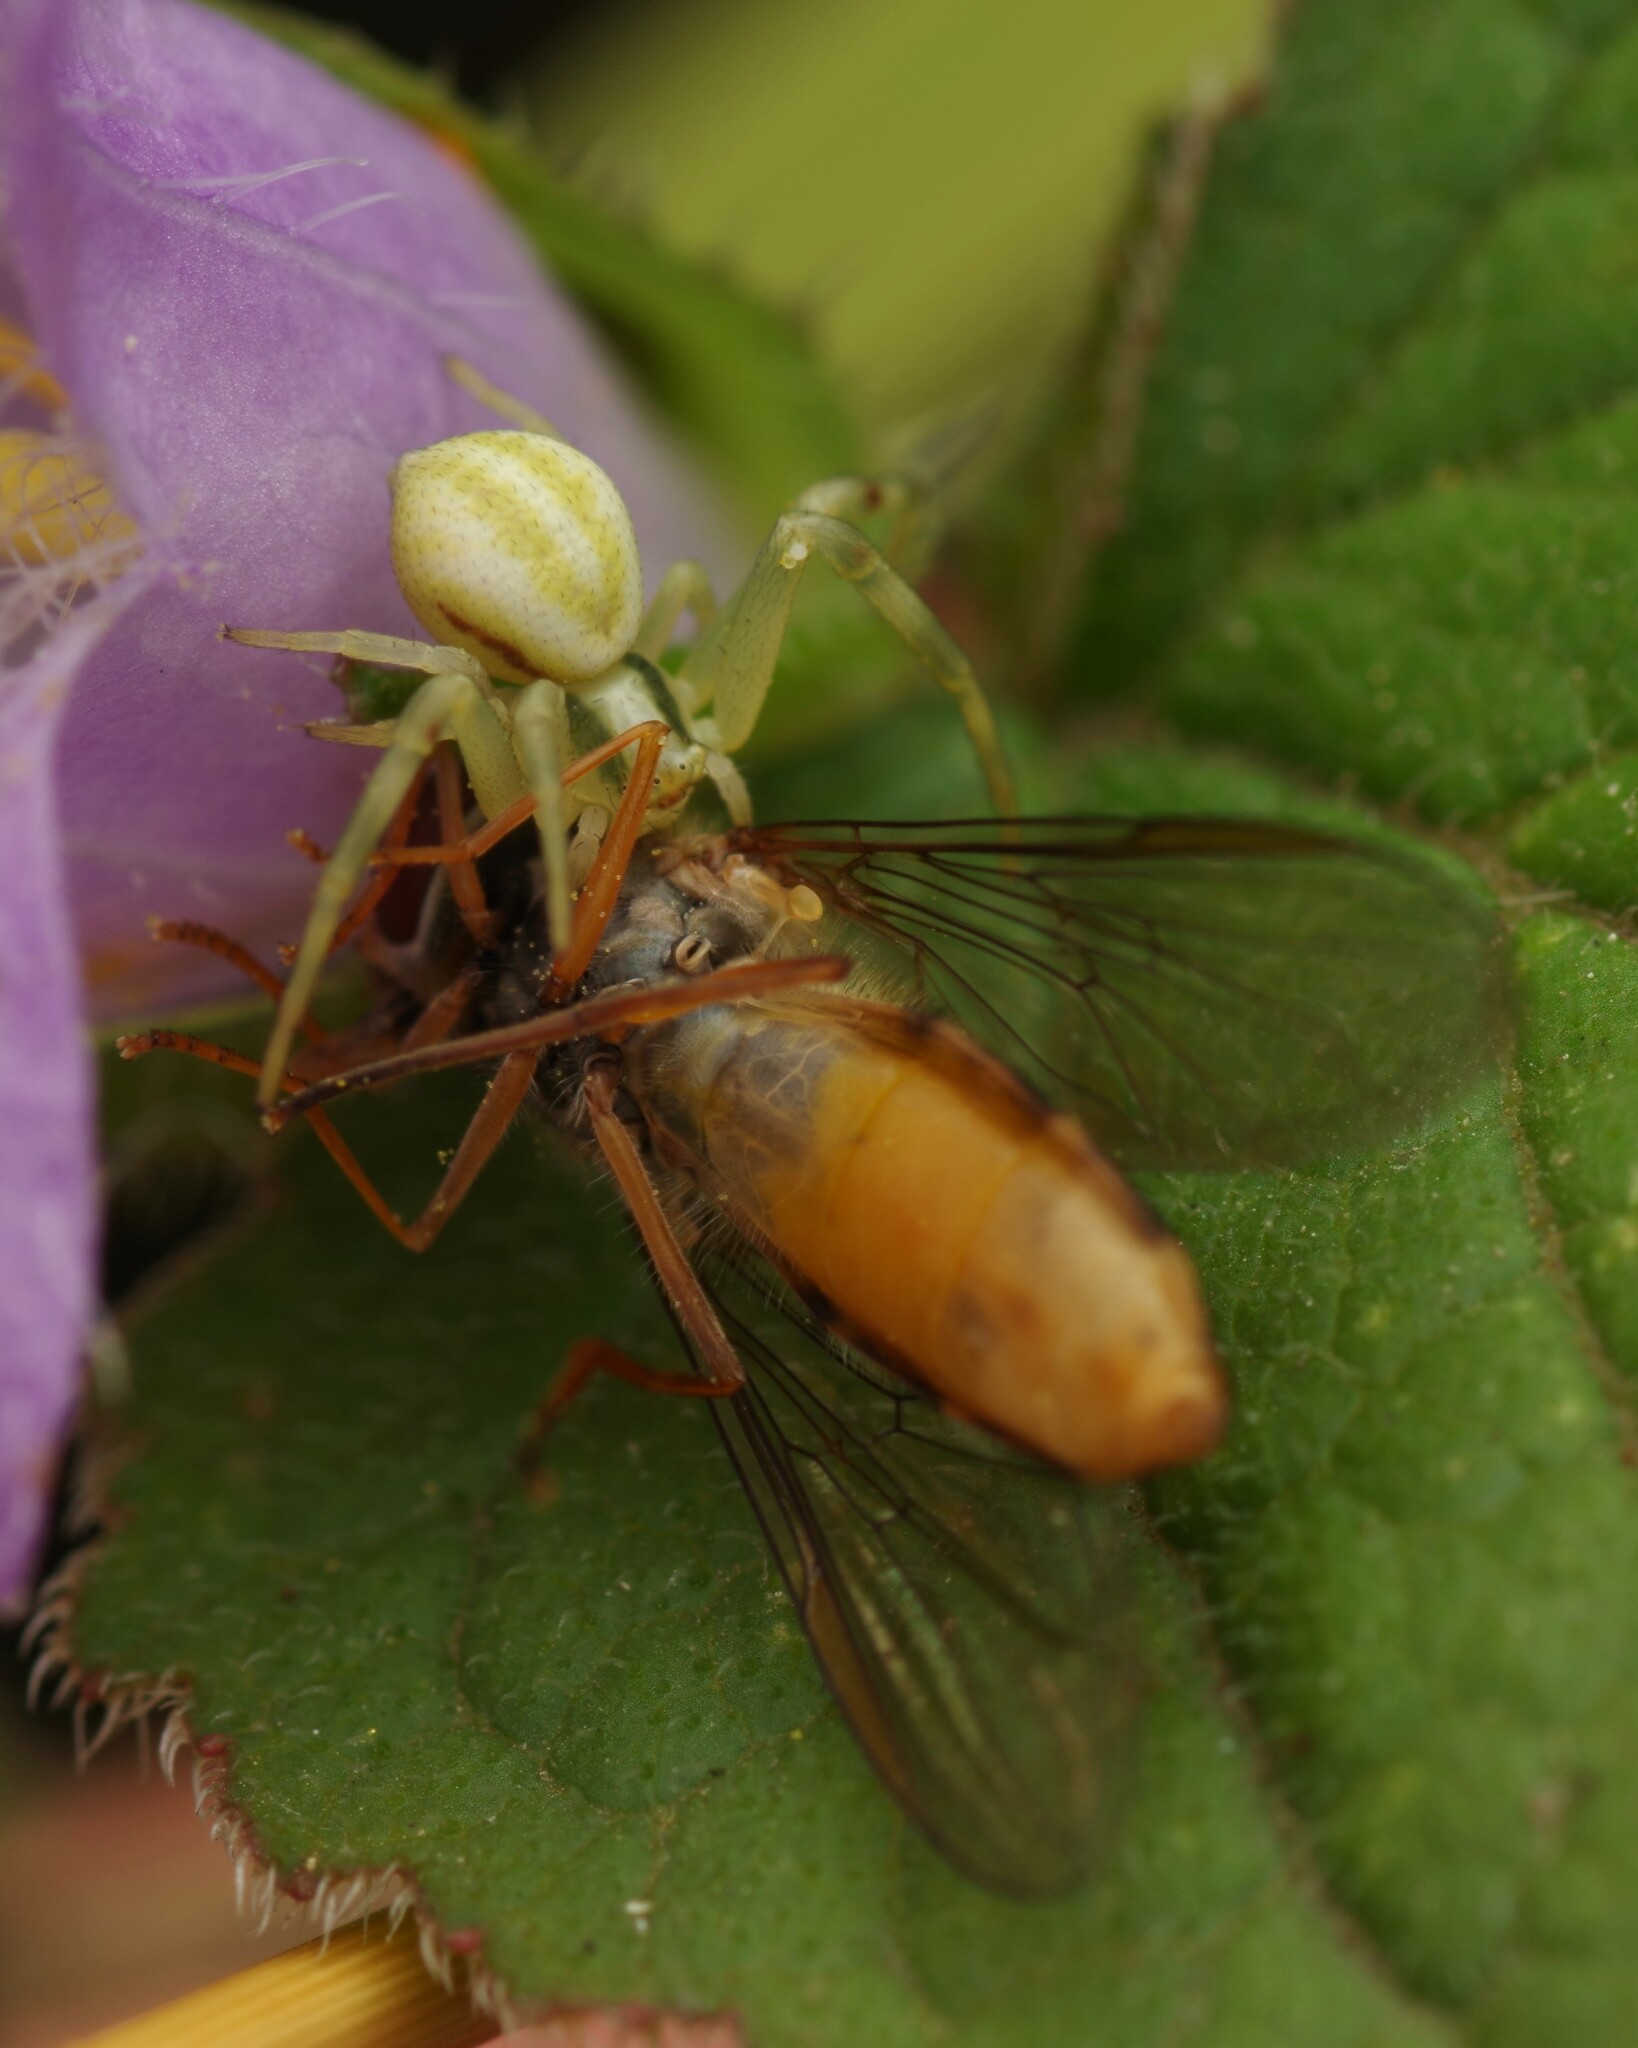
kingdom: Animalia
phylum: Arthropoda
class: Arachnida
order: Araneae
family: Thomisidae
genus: Misumena
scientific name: Misumena vatia
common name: Goldenrod crab spider
